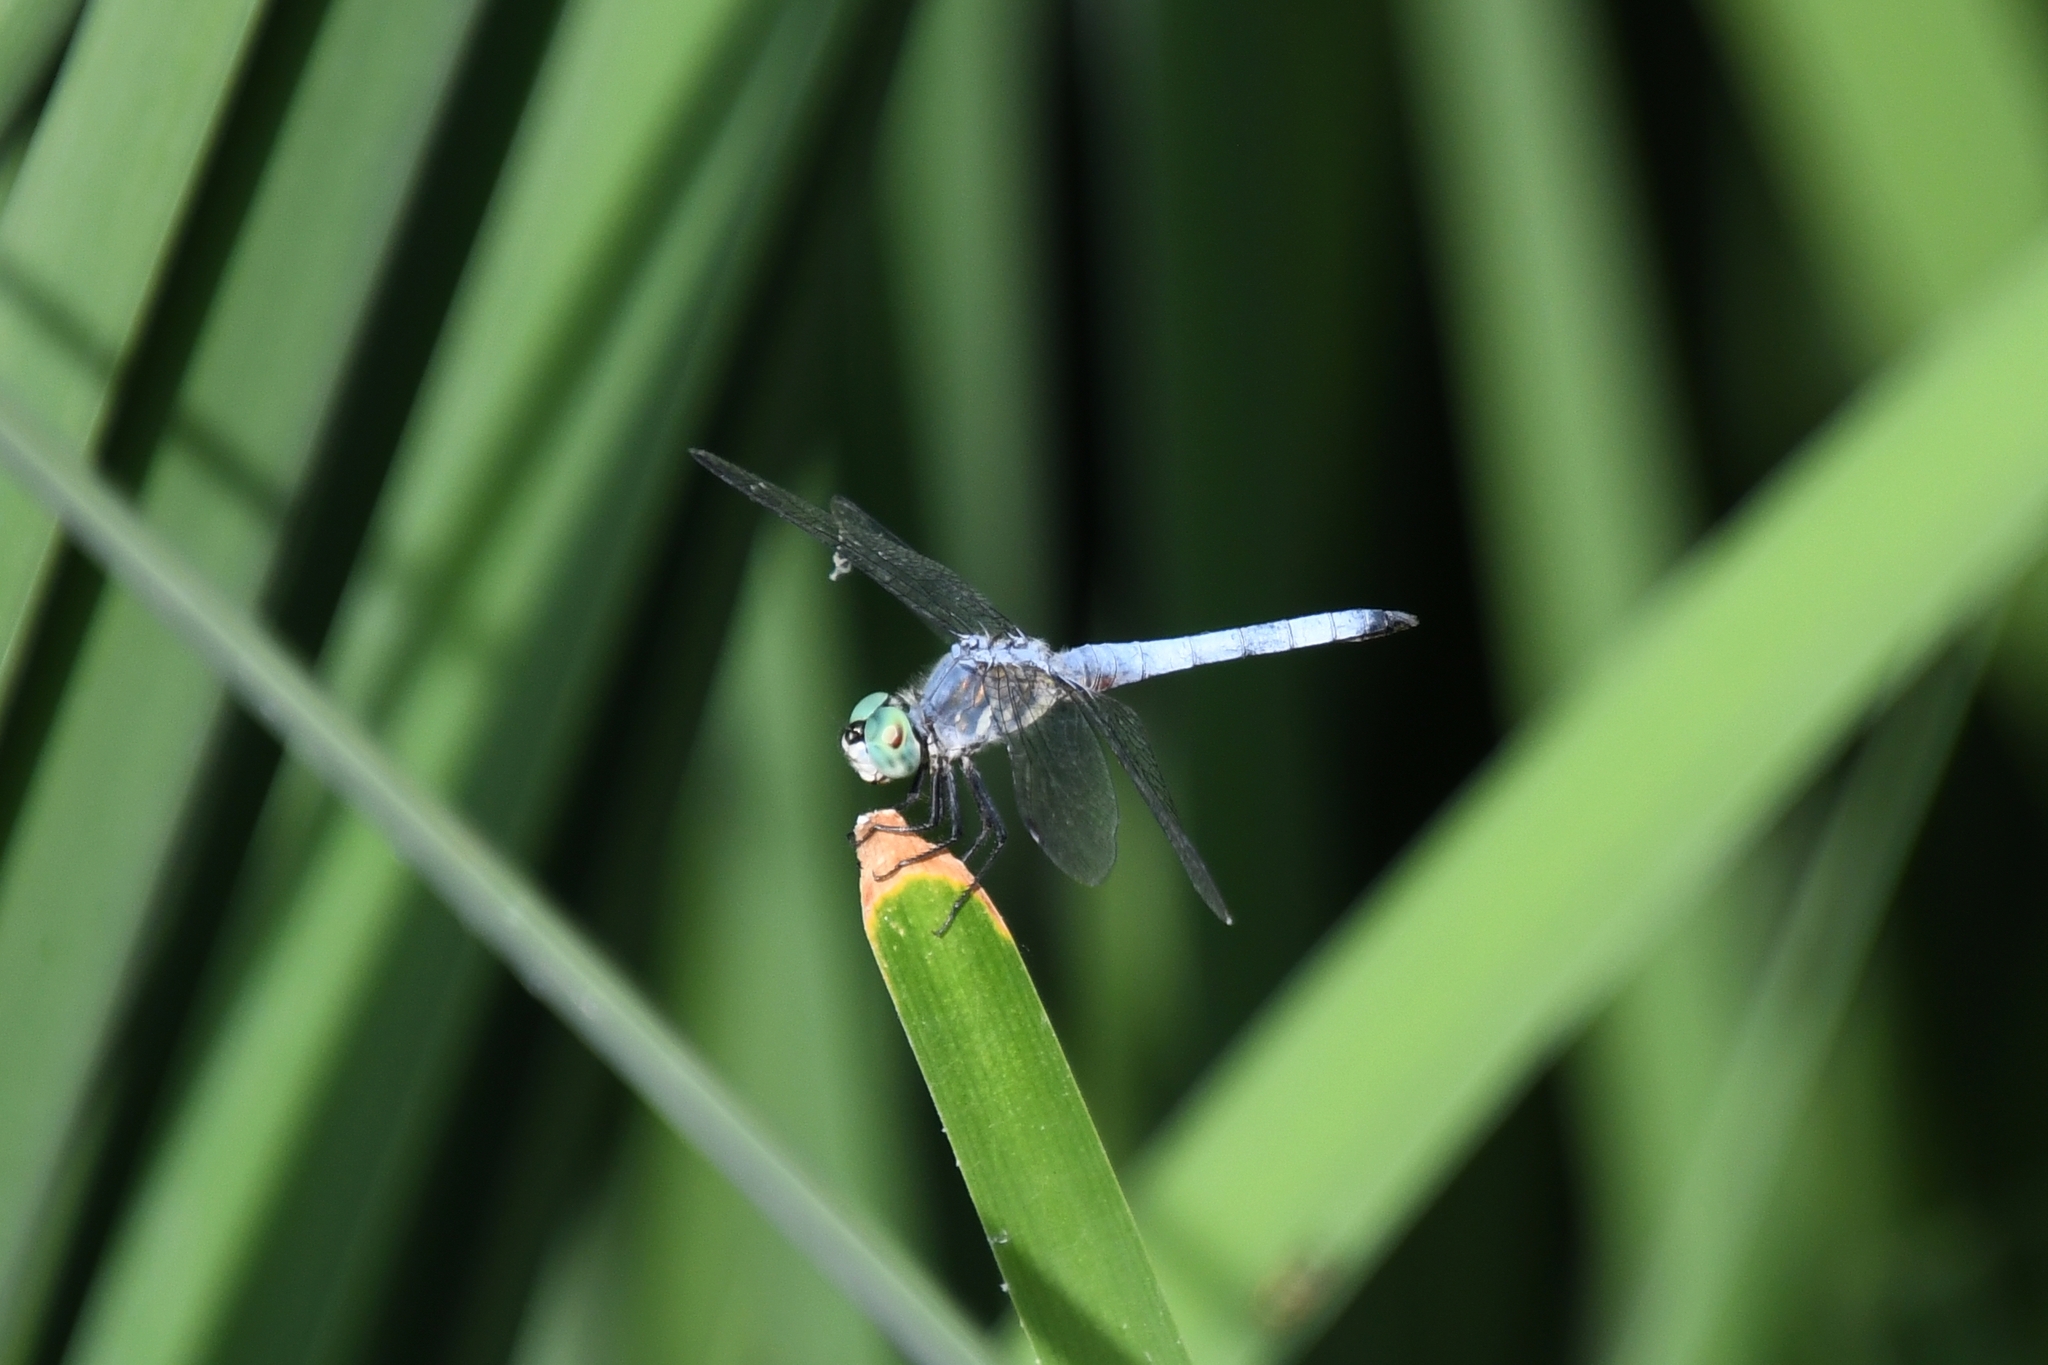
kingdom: Animalia
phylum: Arthropoda
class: Insecta
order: Odonata
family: Libellulidae
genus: Pachydiplax
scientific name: Pachydiplax longipennis
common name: Blue dasher
